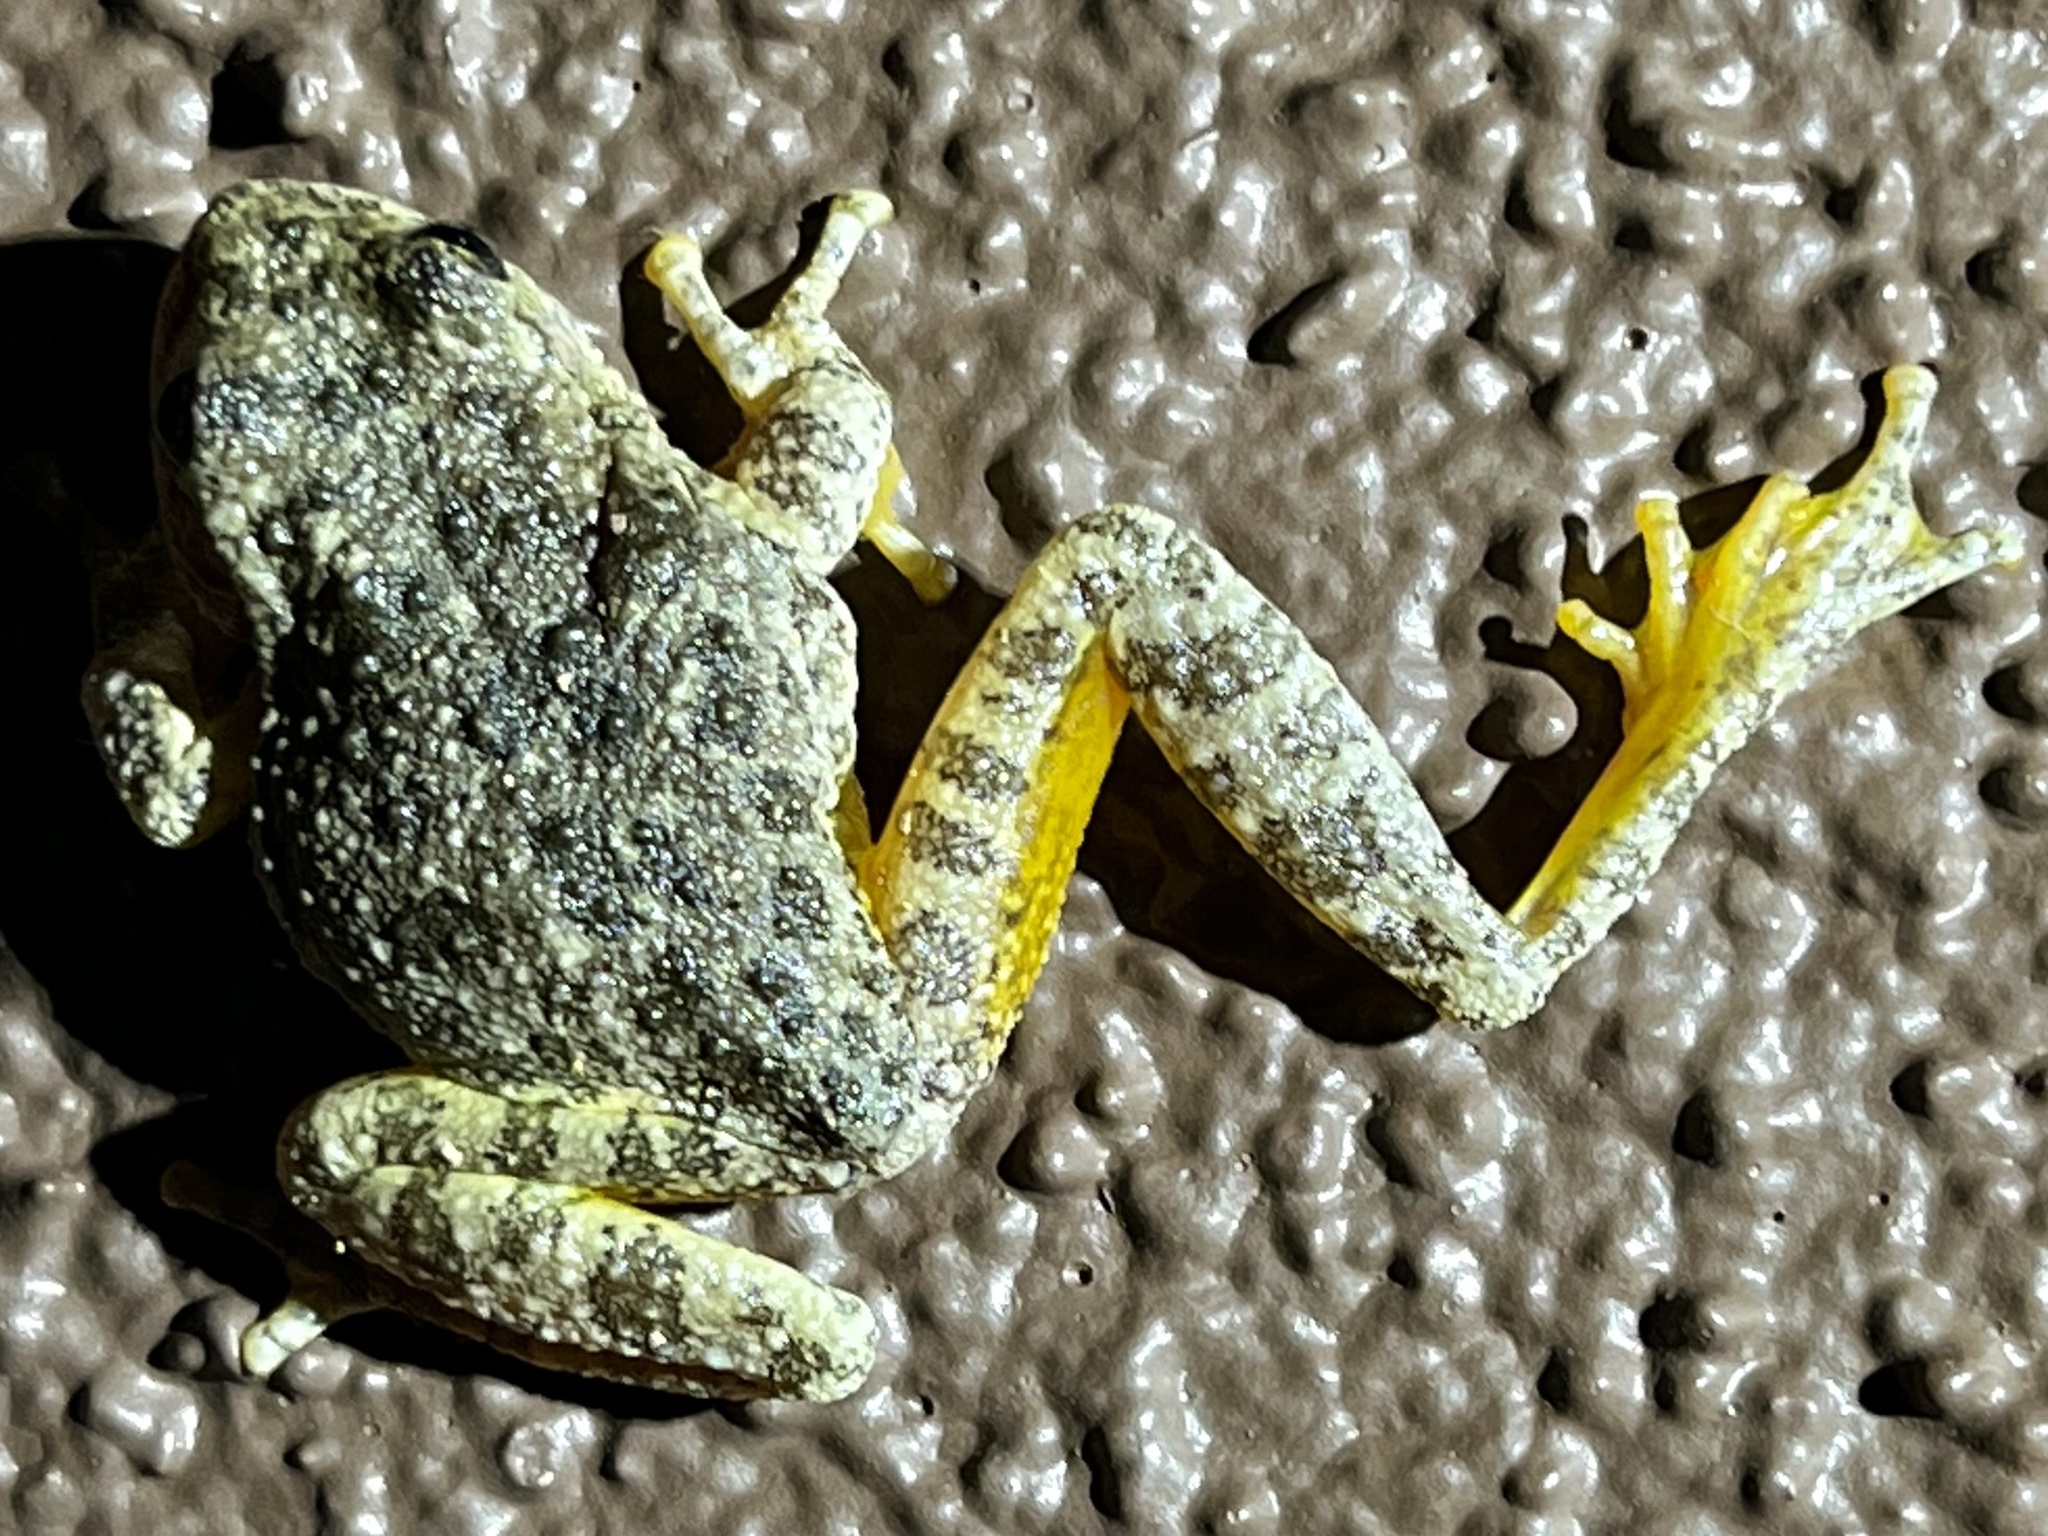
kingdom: Animalia
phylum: Chordata
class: Amphibia
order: Anura
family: Hylidae
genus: Dryophytes
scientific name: Dryophytes arenicolor
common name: Canyon treefrog
